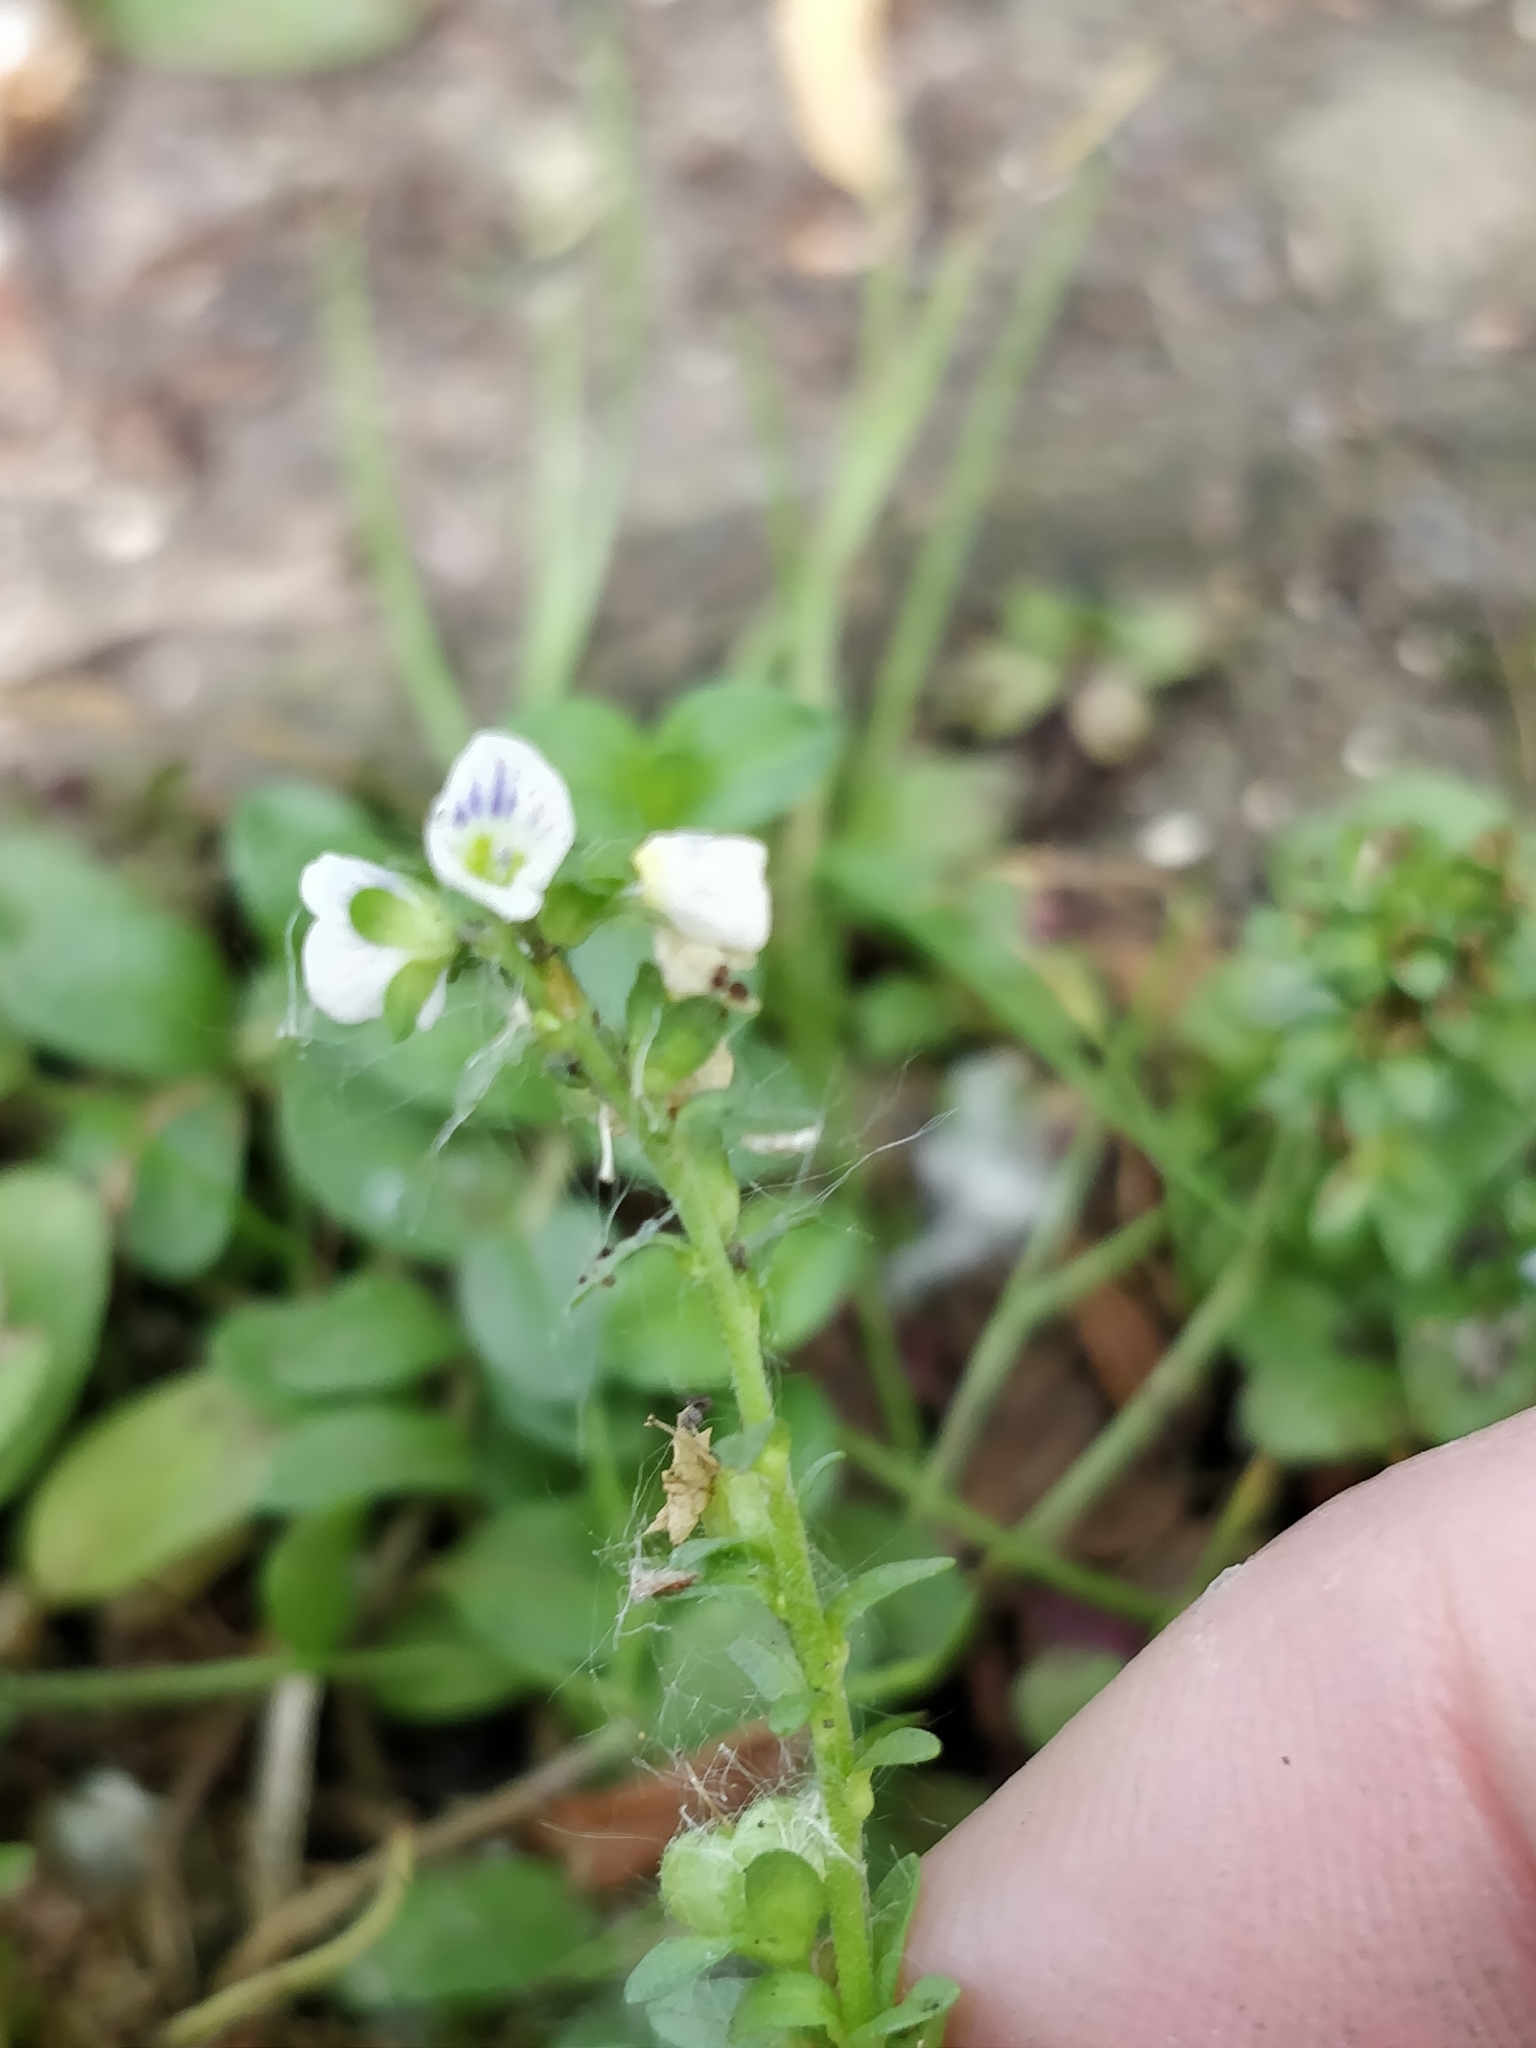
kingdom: Plantae
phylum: Tracheophyta
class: Magnoliopsida
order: Lamiales
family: Plantaginaceae
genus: Veronica
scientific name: Veronica serpyllifolia
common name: Thyme-leaved speedwell
